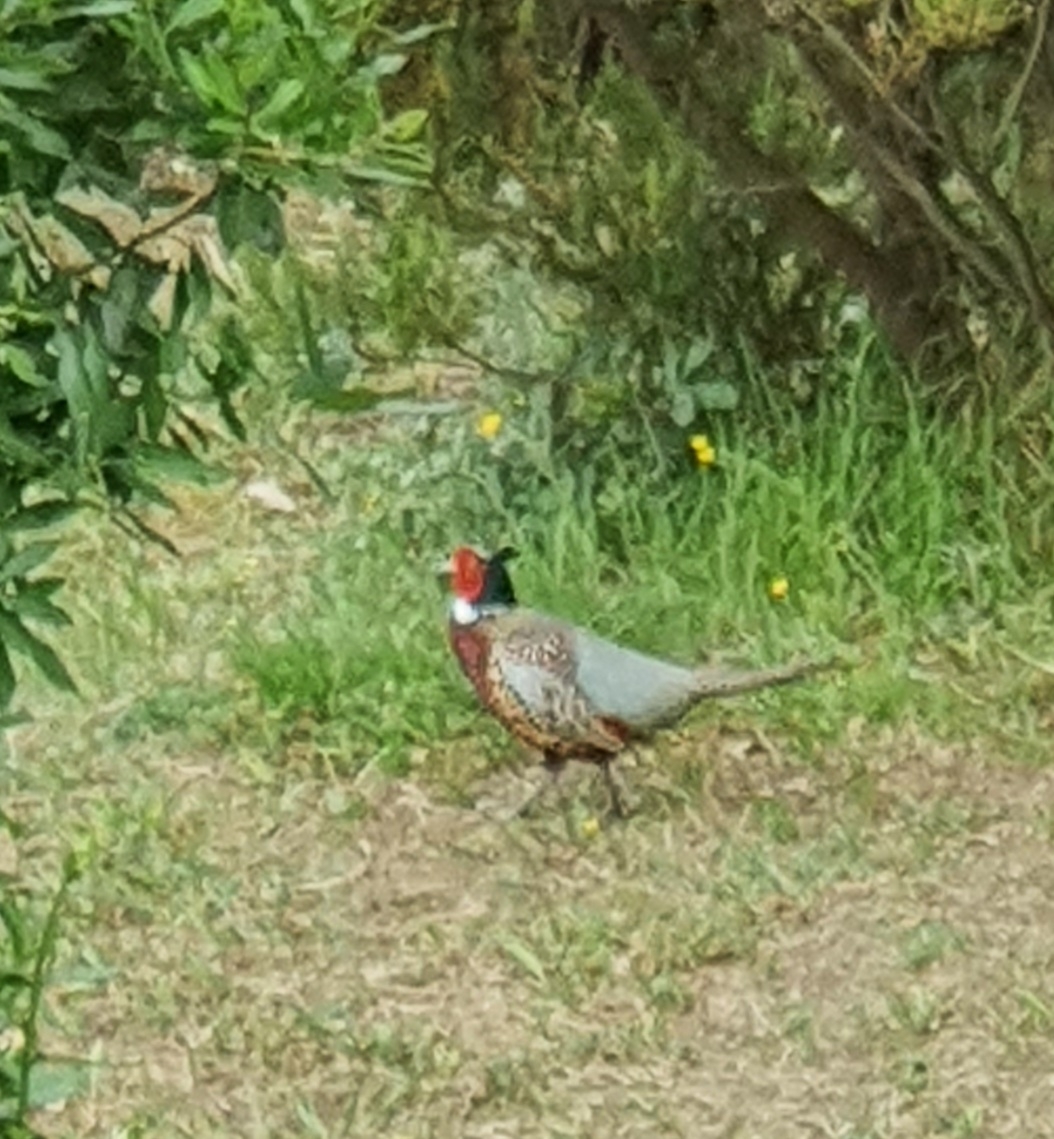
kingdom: Animalia
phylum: Chordata
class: Aves
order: Galliformes
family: Phasianidae
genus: Phasianus
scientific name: Phasianus colchicus
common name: Common pheasant
